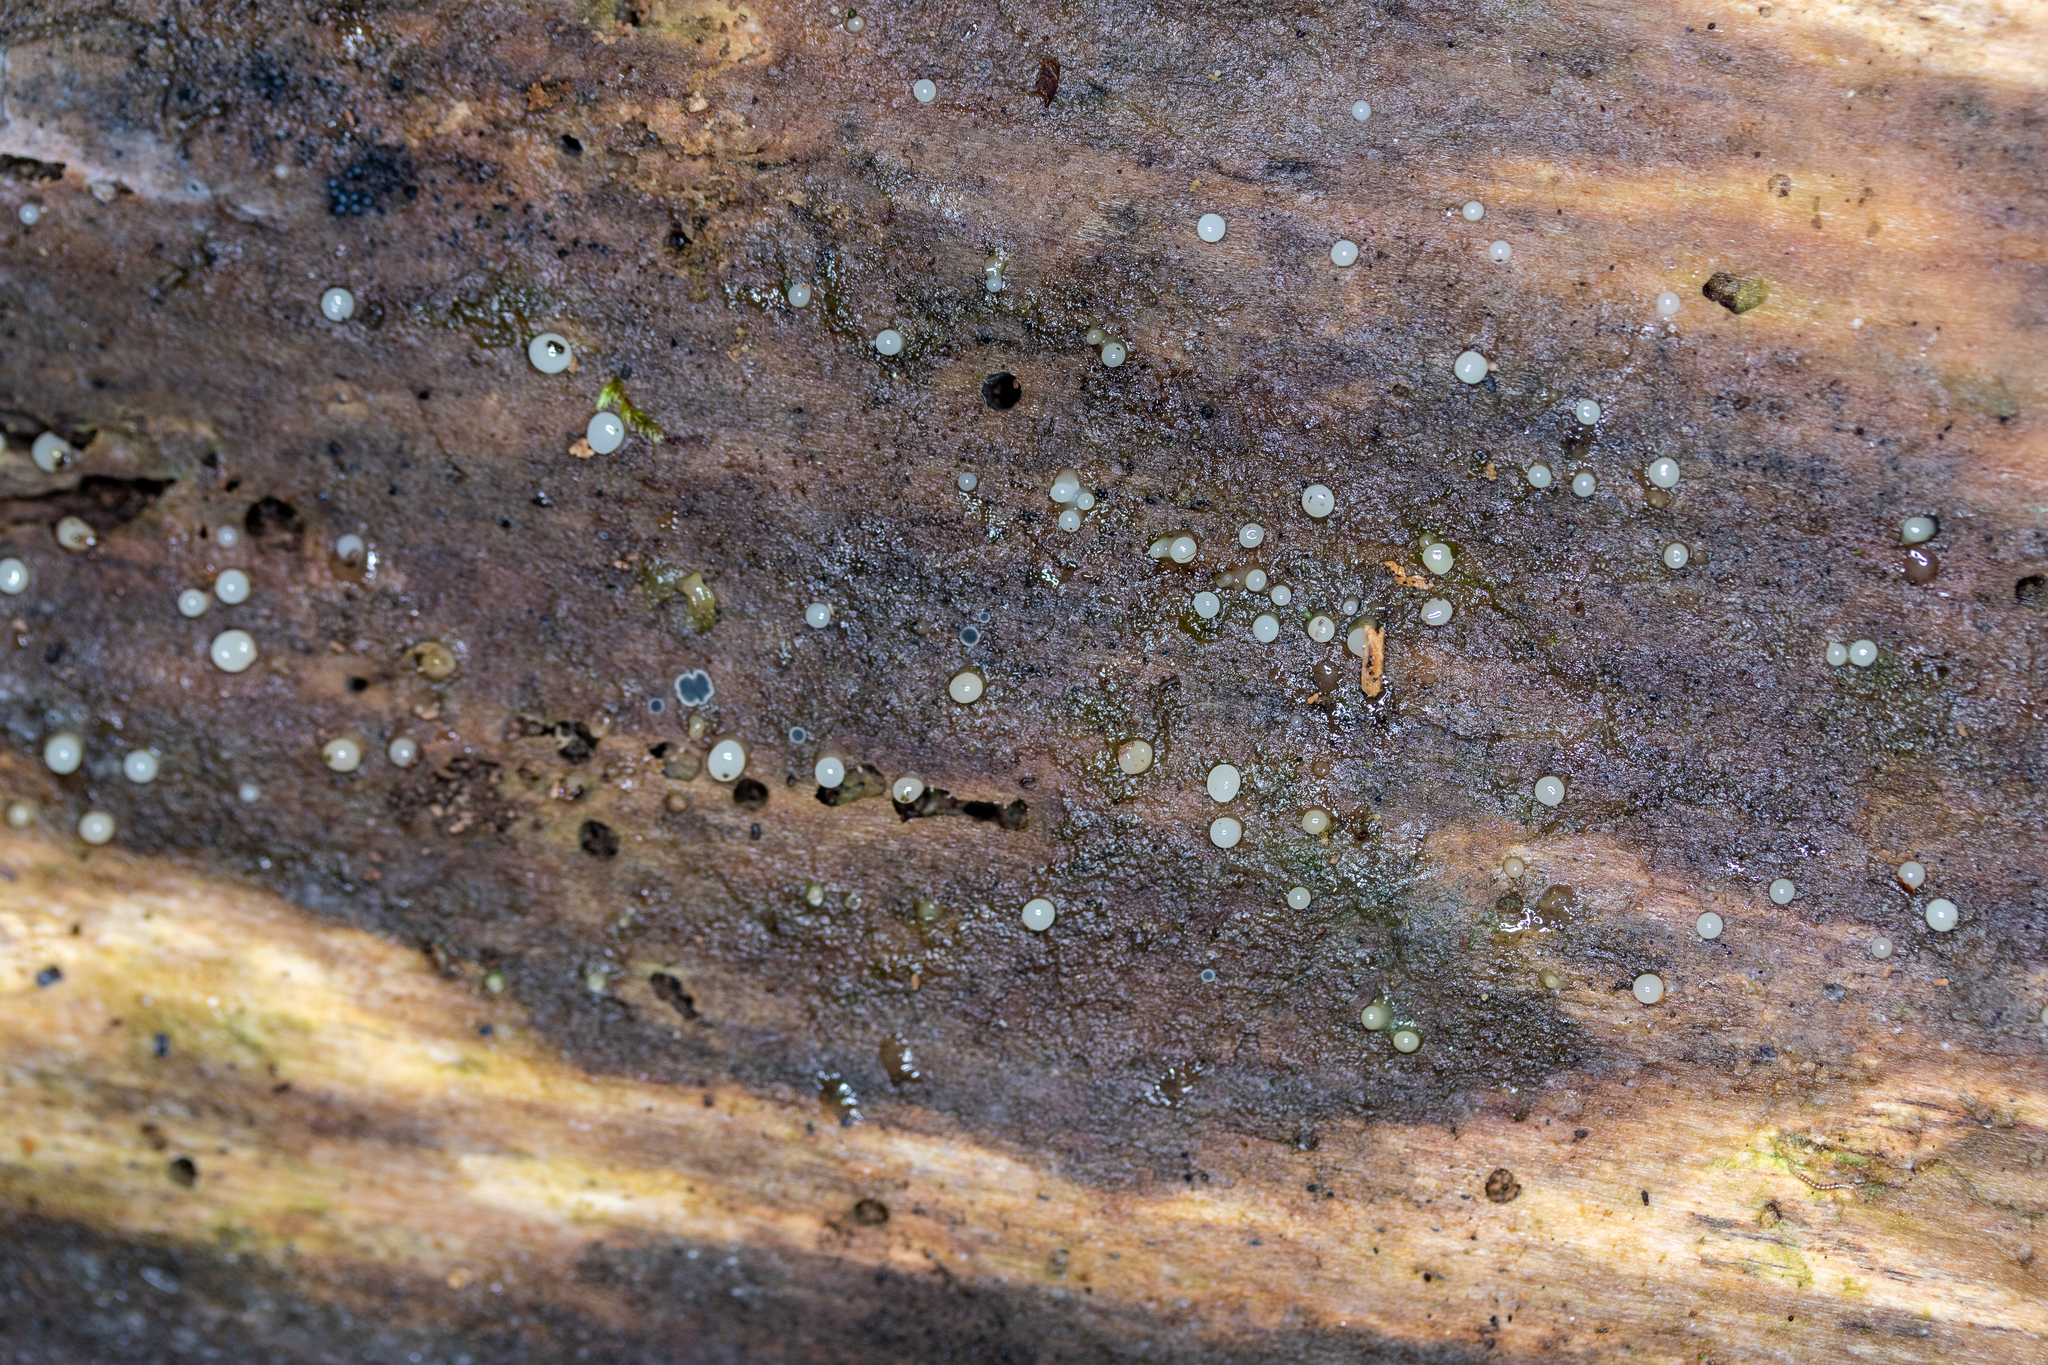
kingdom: Fungi
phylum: Basidiomycota
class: Atractiellomycetes
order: Atractiellales
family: Phleogenaceae
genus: Helicogloea
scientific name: Helicogloea compressa
